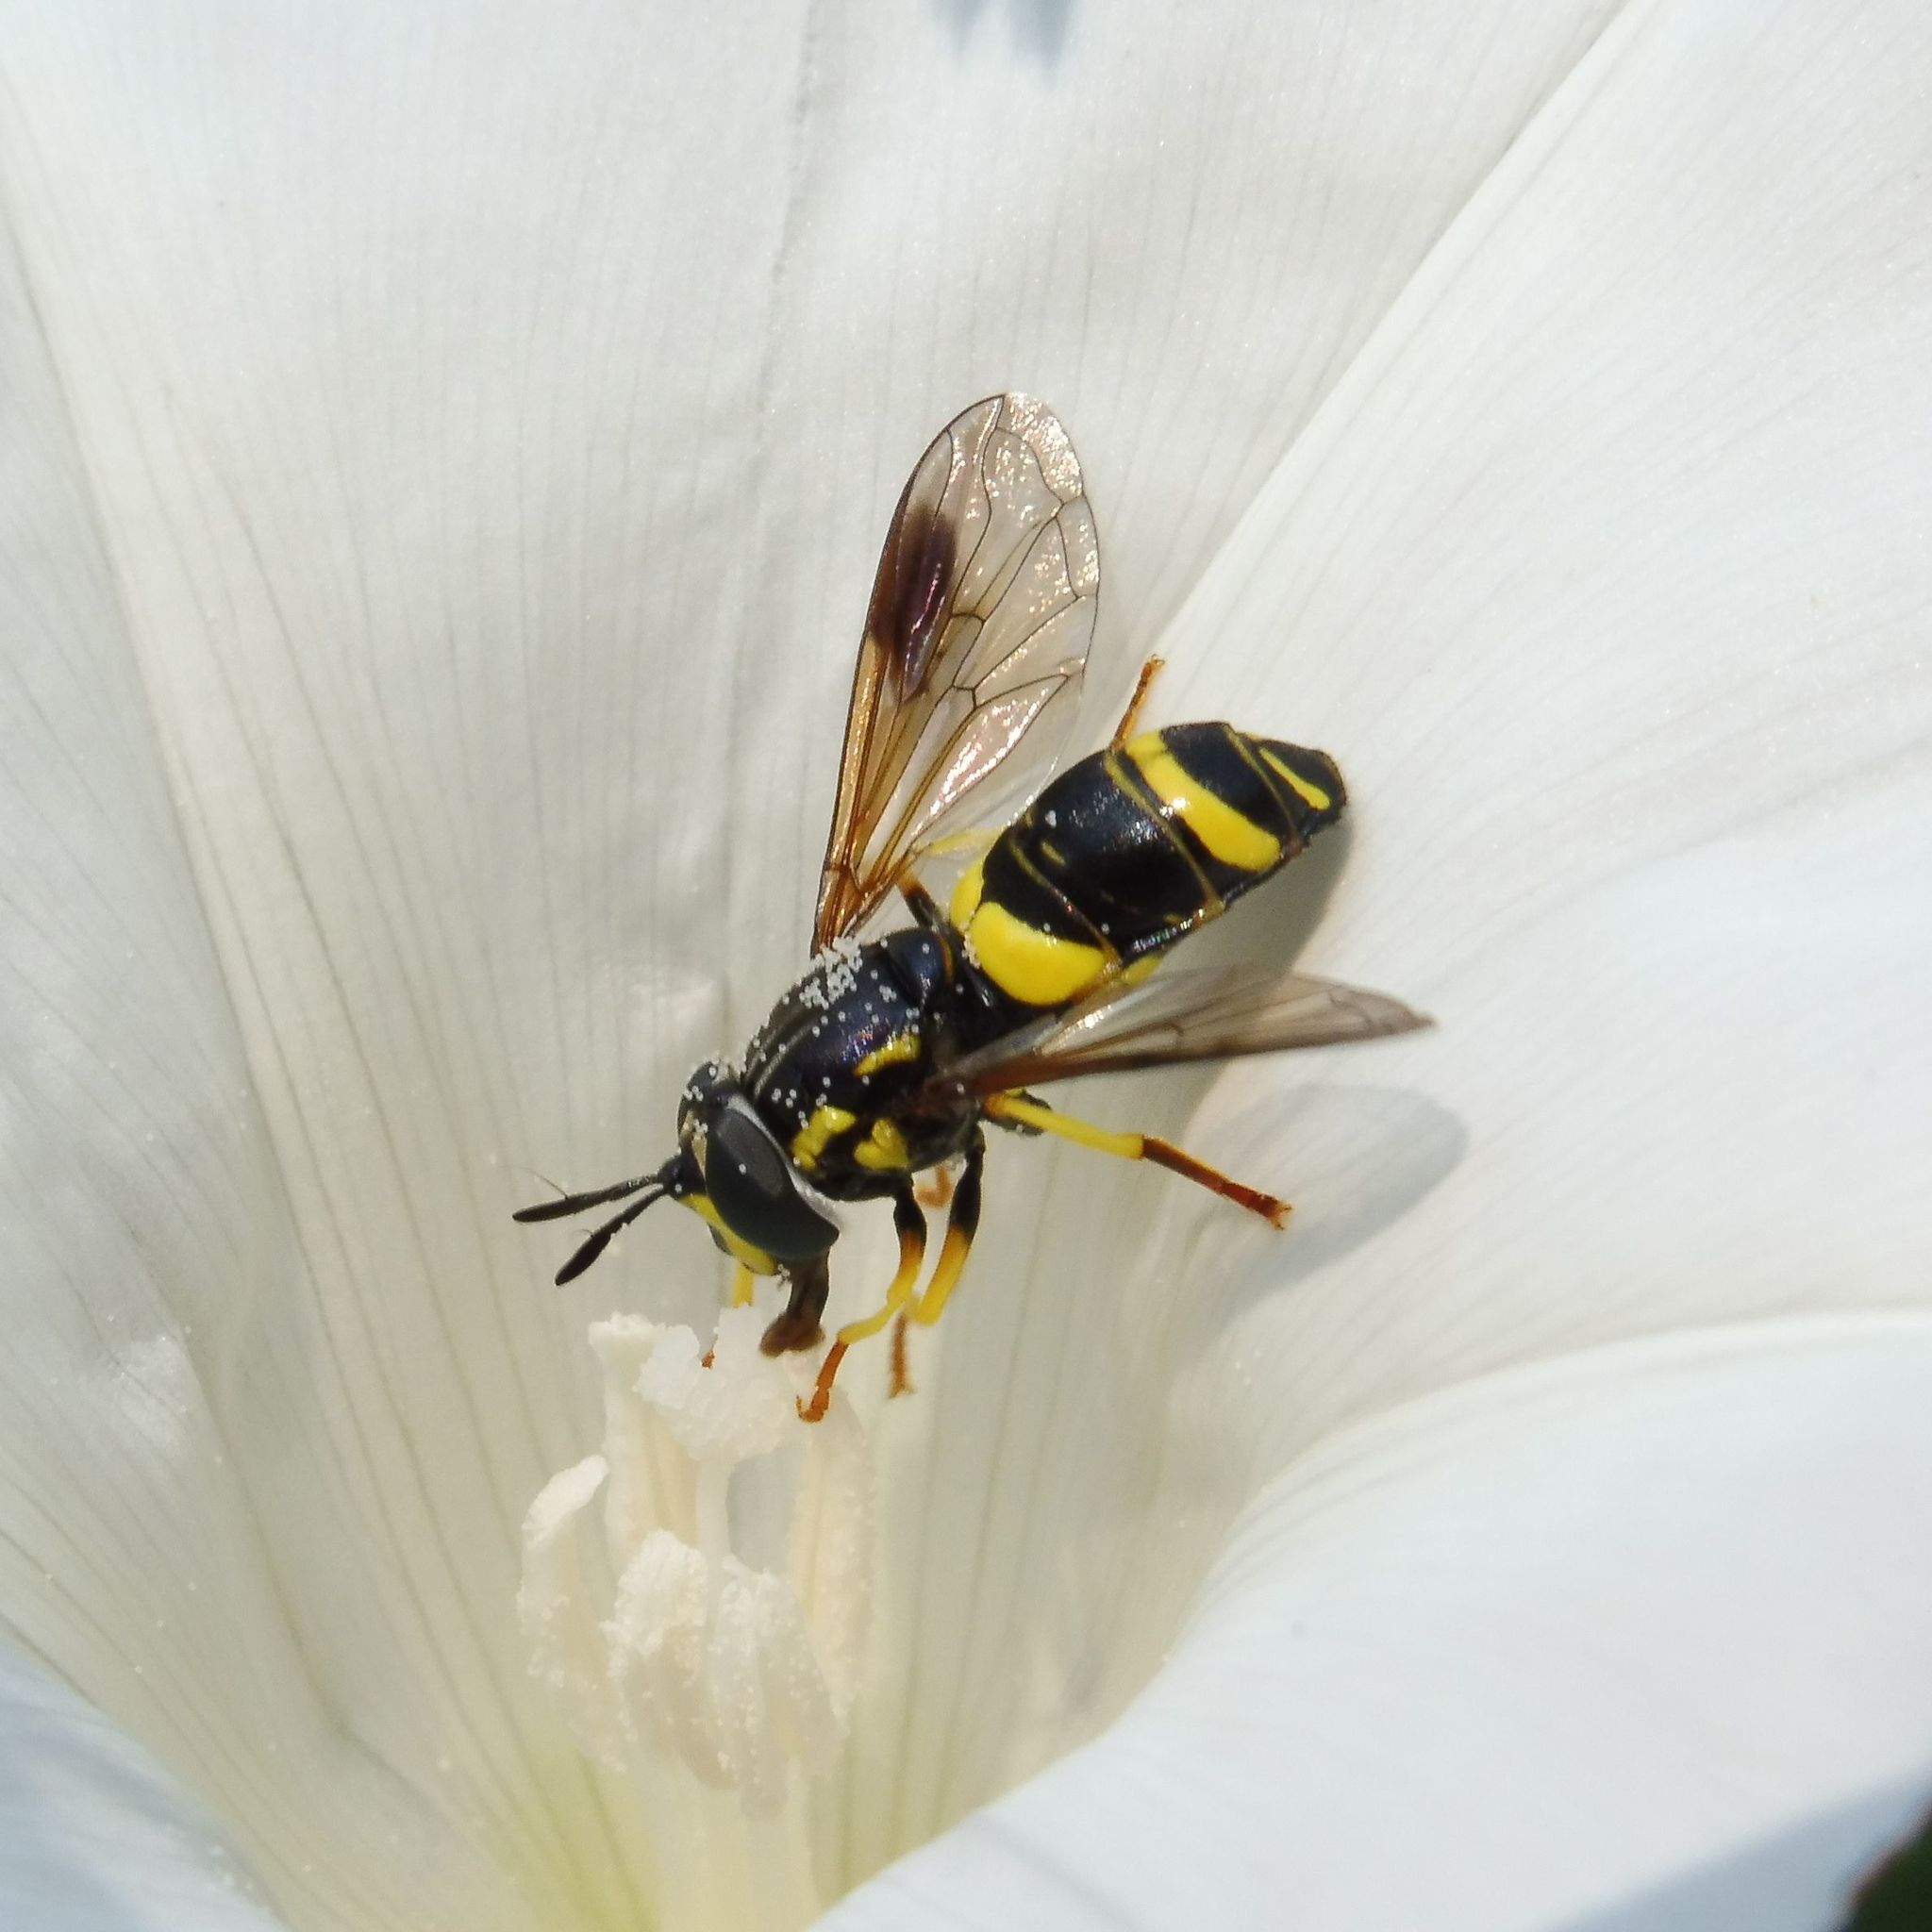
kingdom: Animalia
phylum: Arthropoda
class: Insecta
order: Diptera
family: Syrphidae
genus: Chrysotoxum
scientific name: Chrysotoxum bicincta
